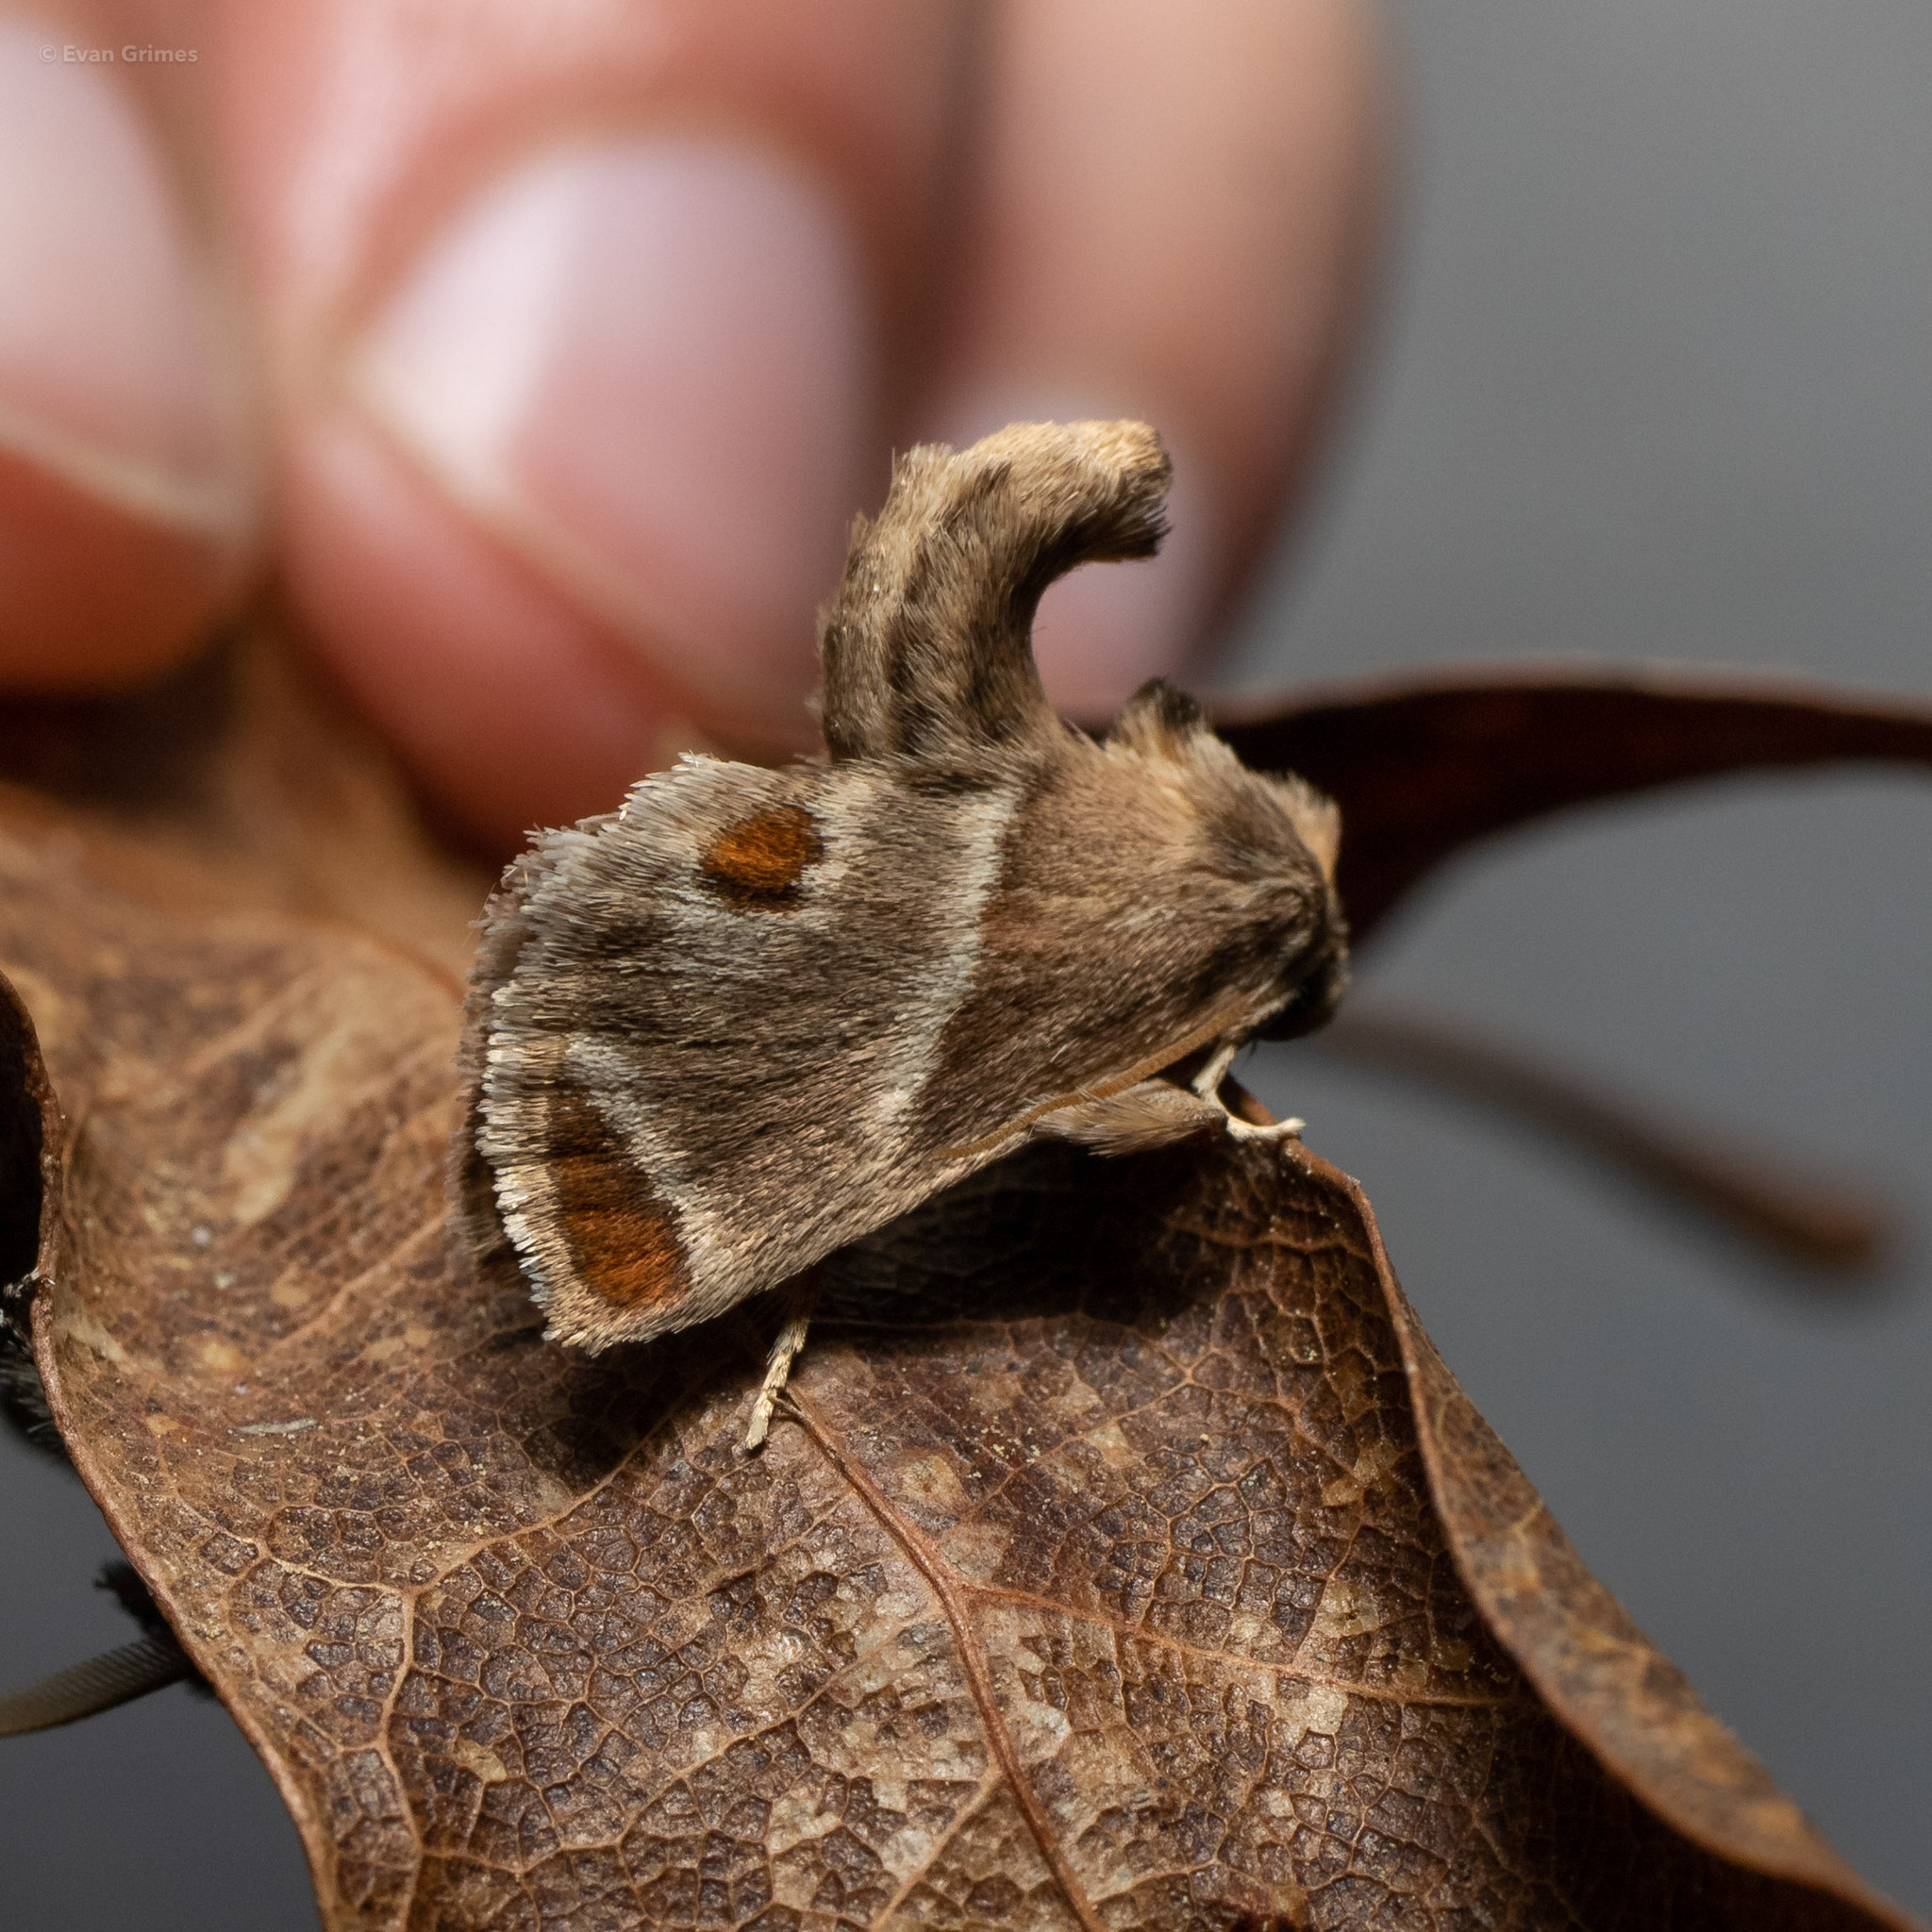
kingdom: Animalia
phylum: Arthropoda
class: Insecta
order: Lepidoptera
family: Limacodidae
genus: Apoda
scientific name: Apoda biguttata
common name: Shagreened slug moth
